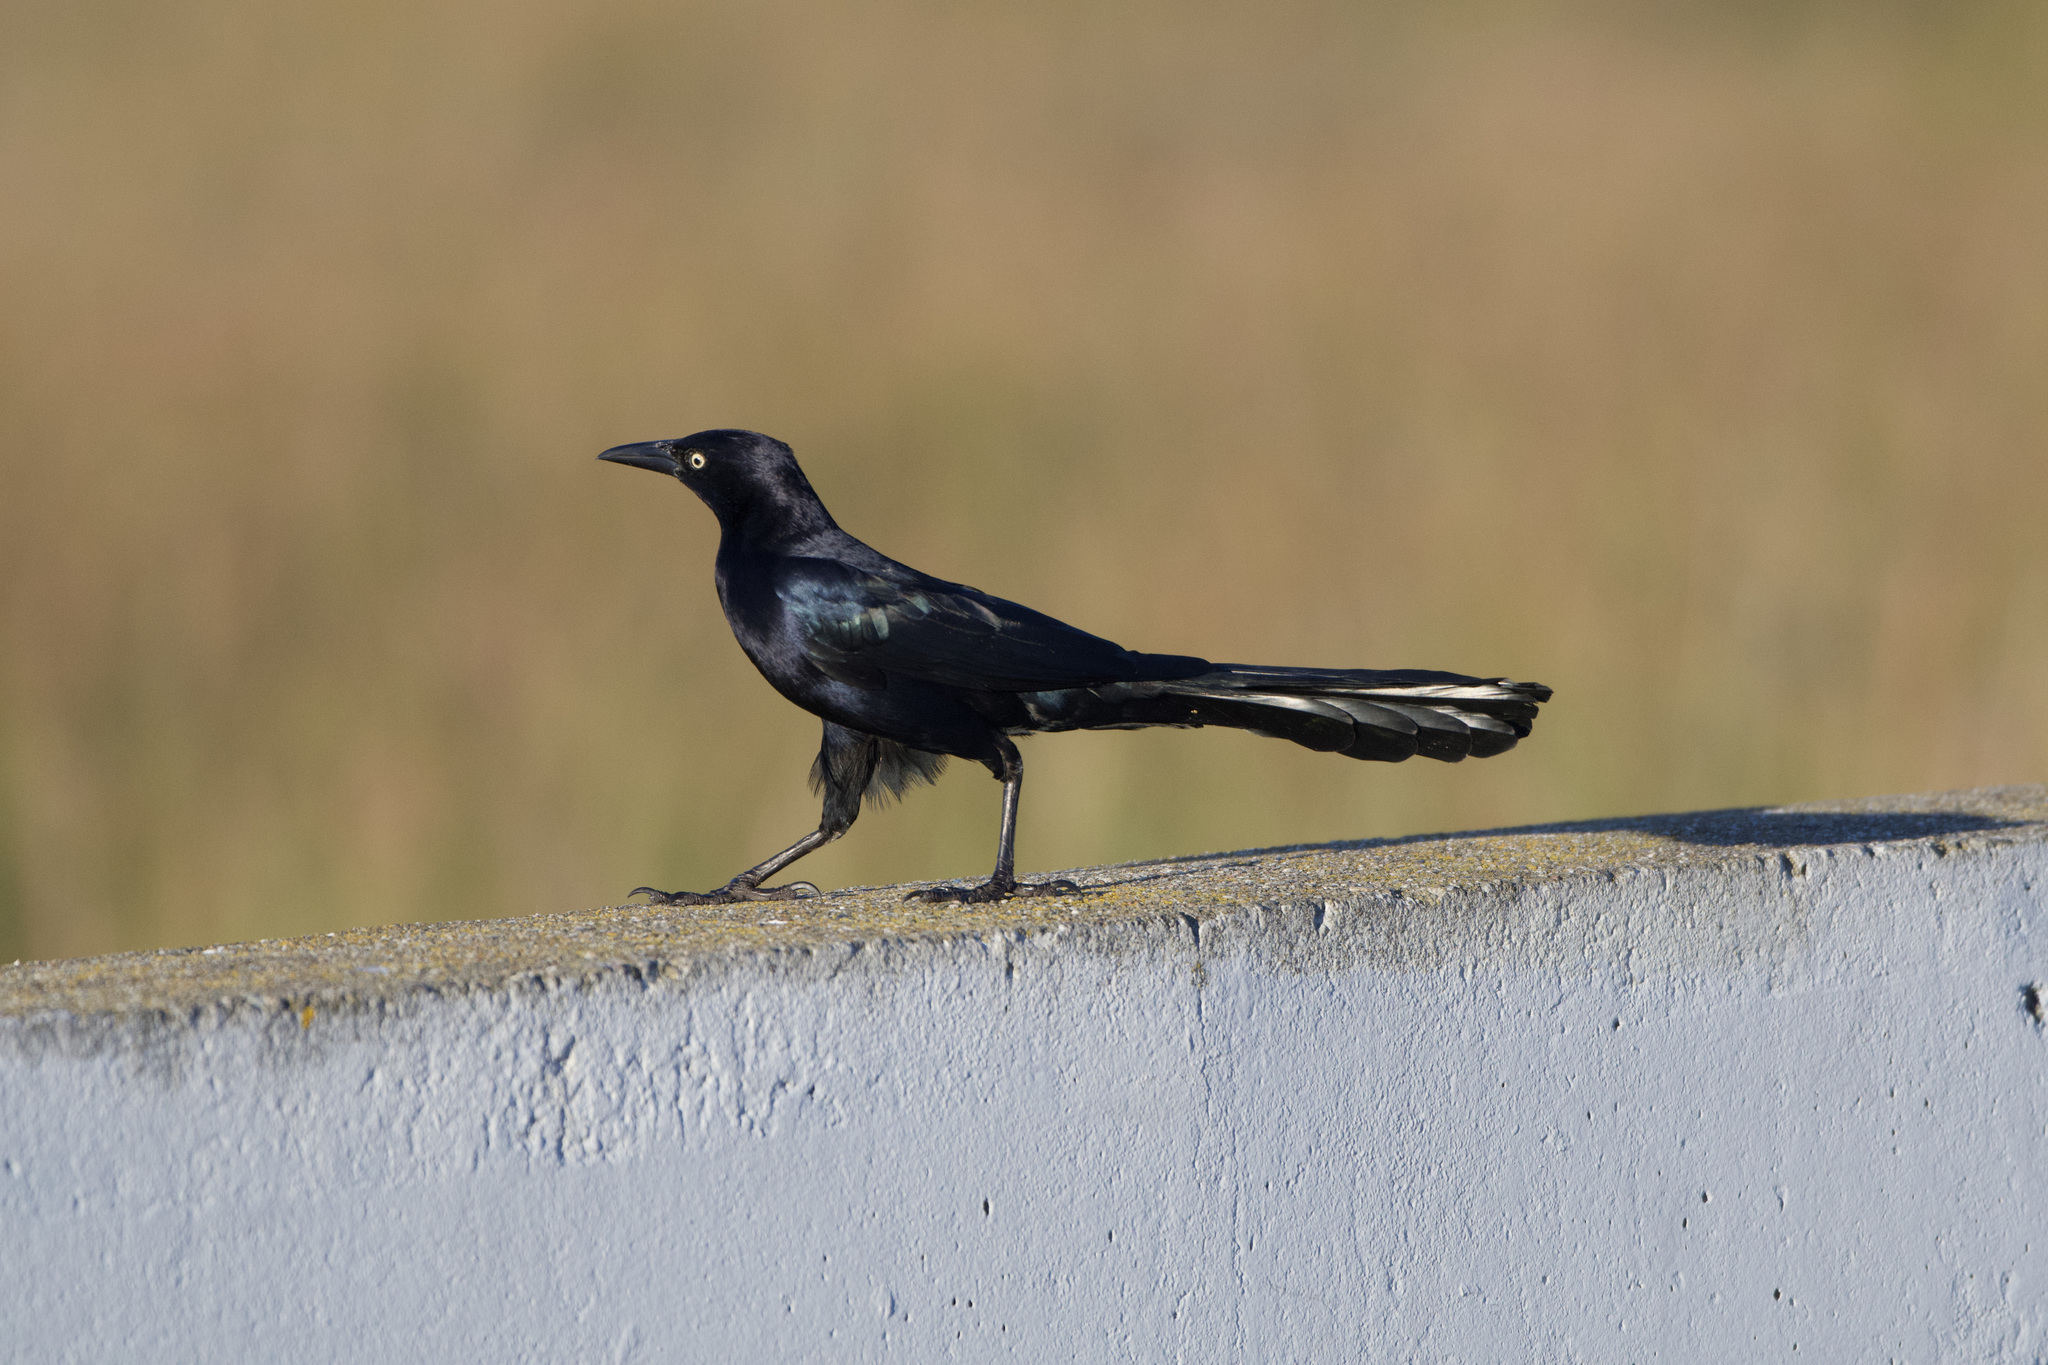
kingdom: Animalia
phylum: Chordata
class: Aves
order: Passeriformes
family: Icteridae
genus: Quiscalus
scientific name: Quiscalus mexicanus
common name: Great-tailed grackle
